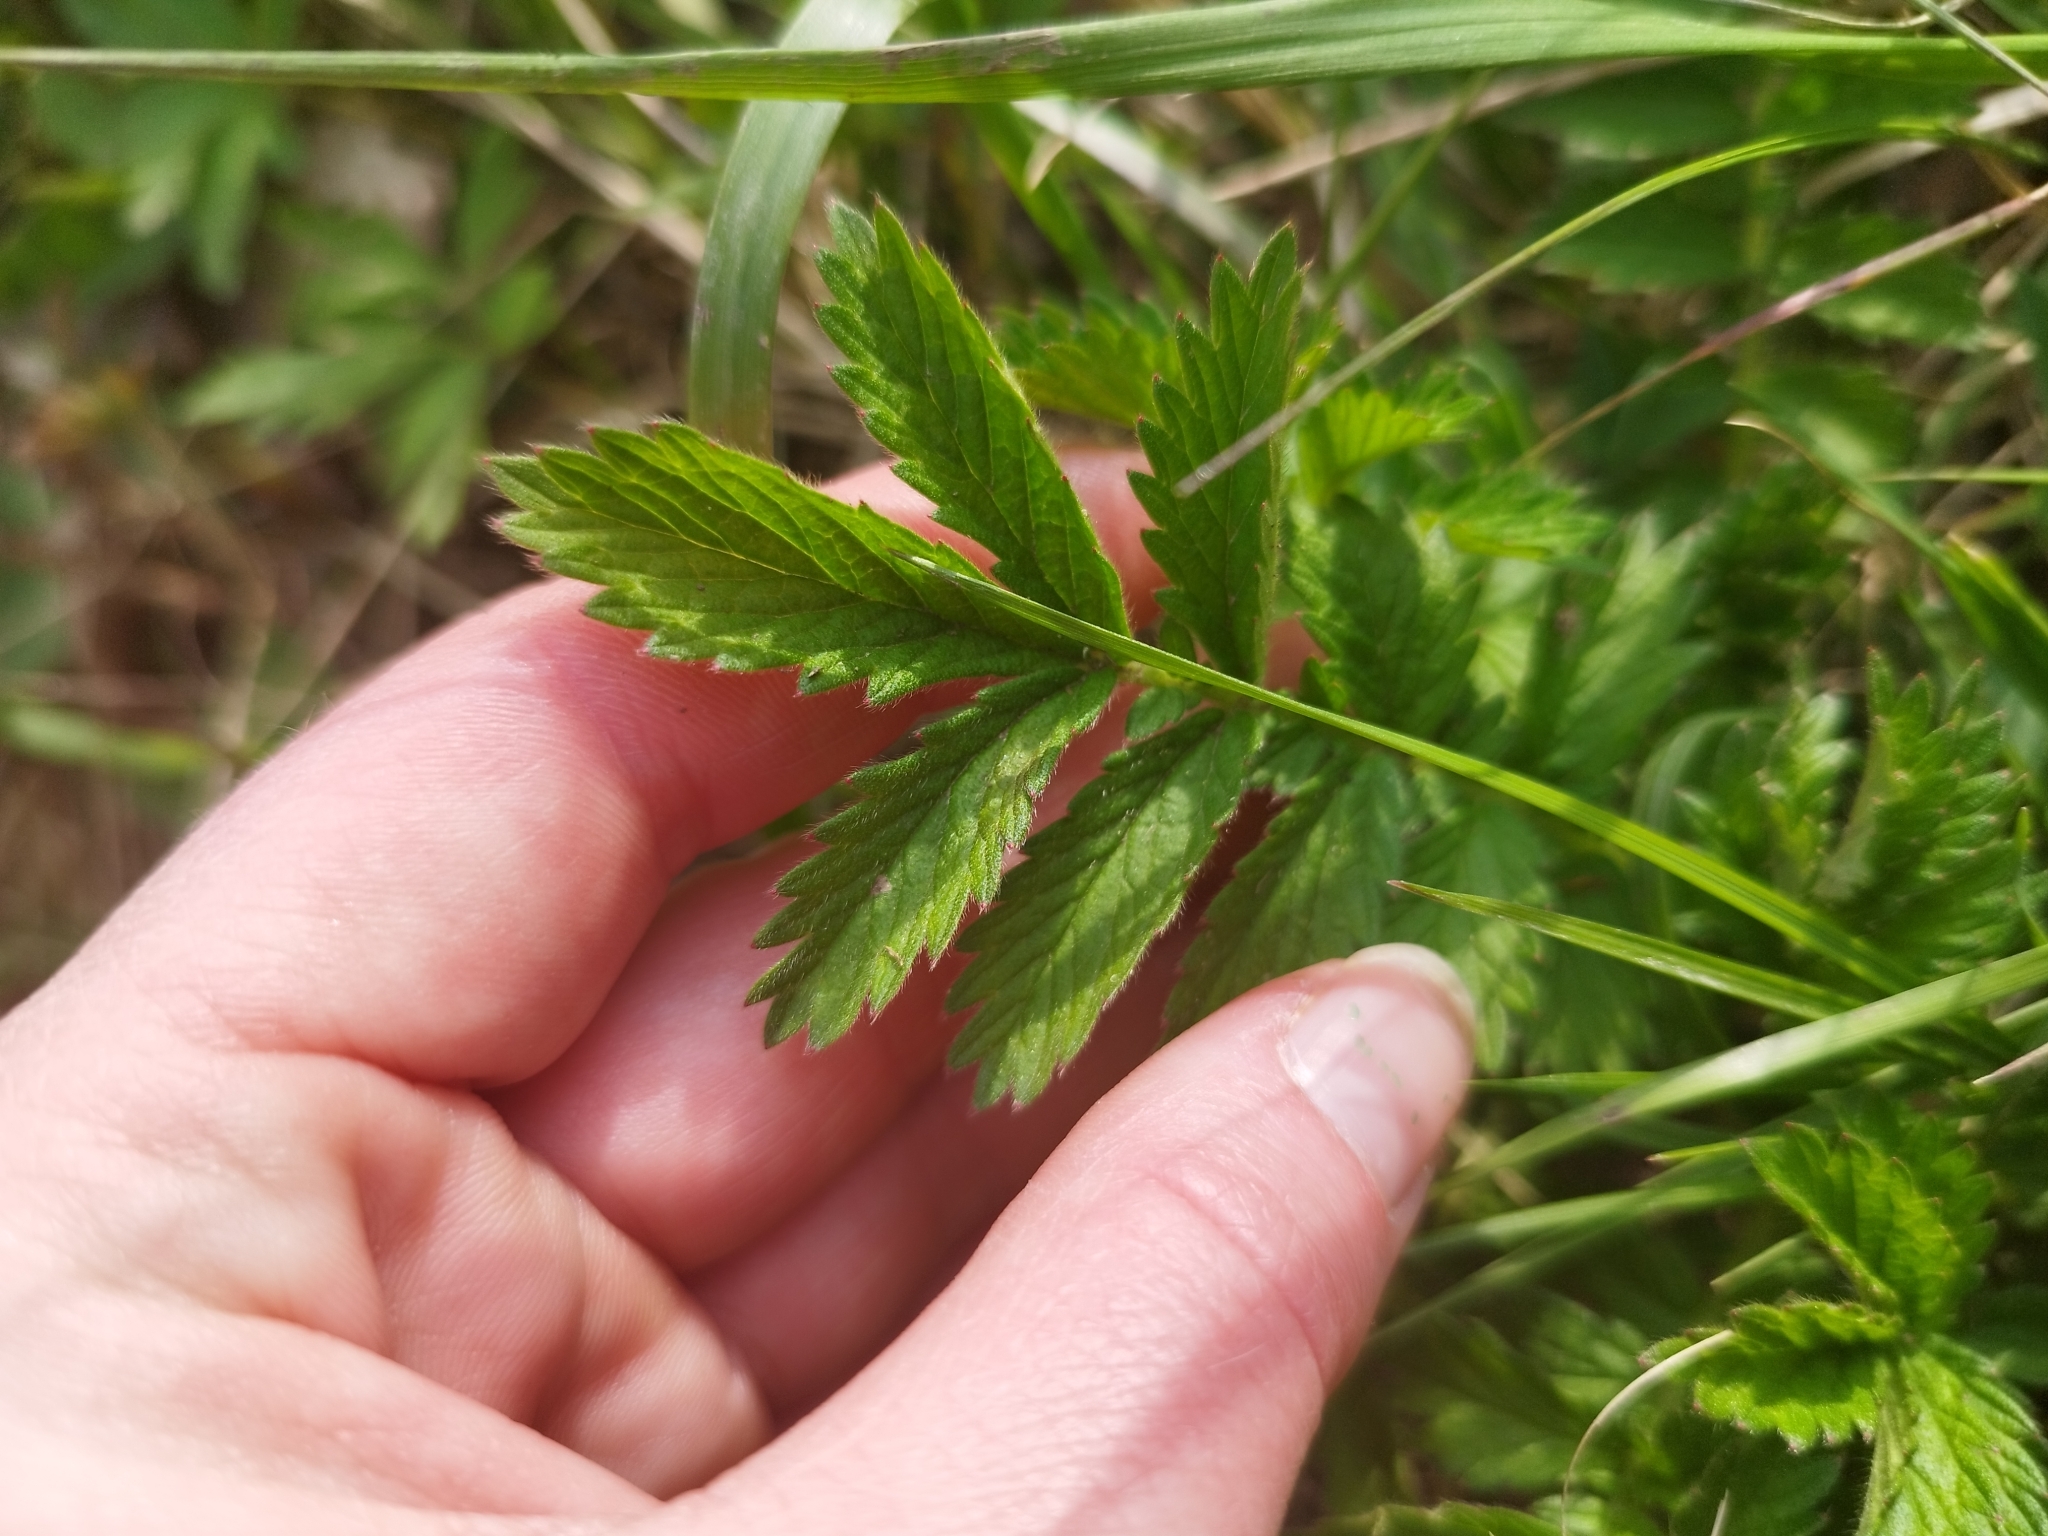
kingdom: Plantae
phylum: Tracheophyta
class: Magnoliopsida
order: Rosales
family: Rosaceae
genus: Argentina
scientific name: Argentina anserina
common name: Common silverweed
